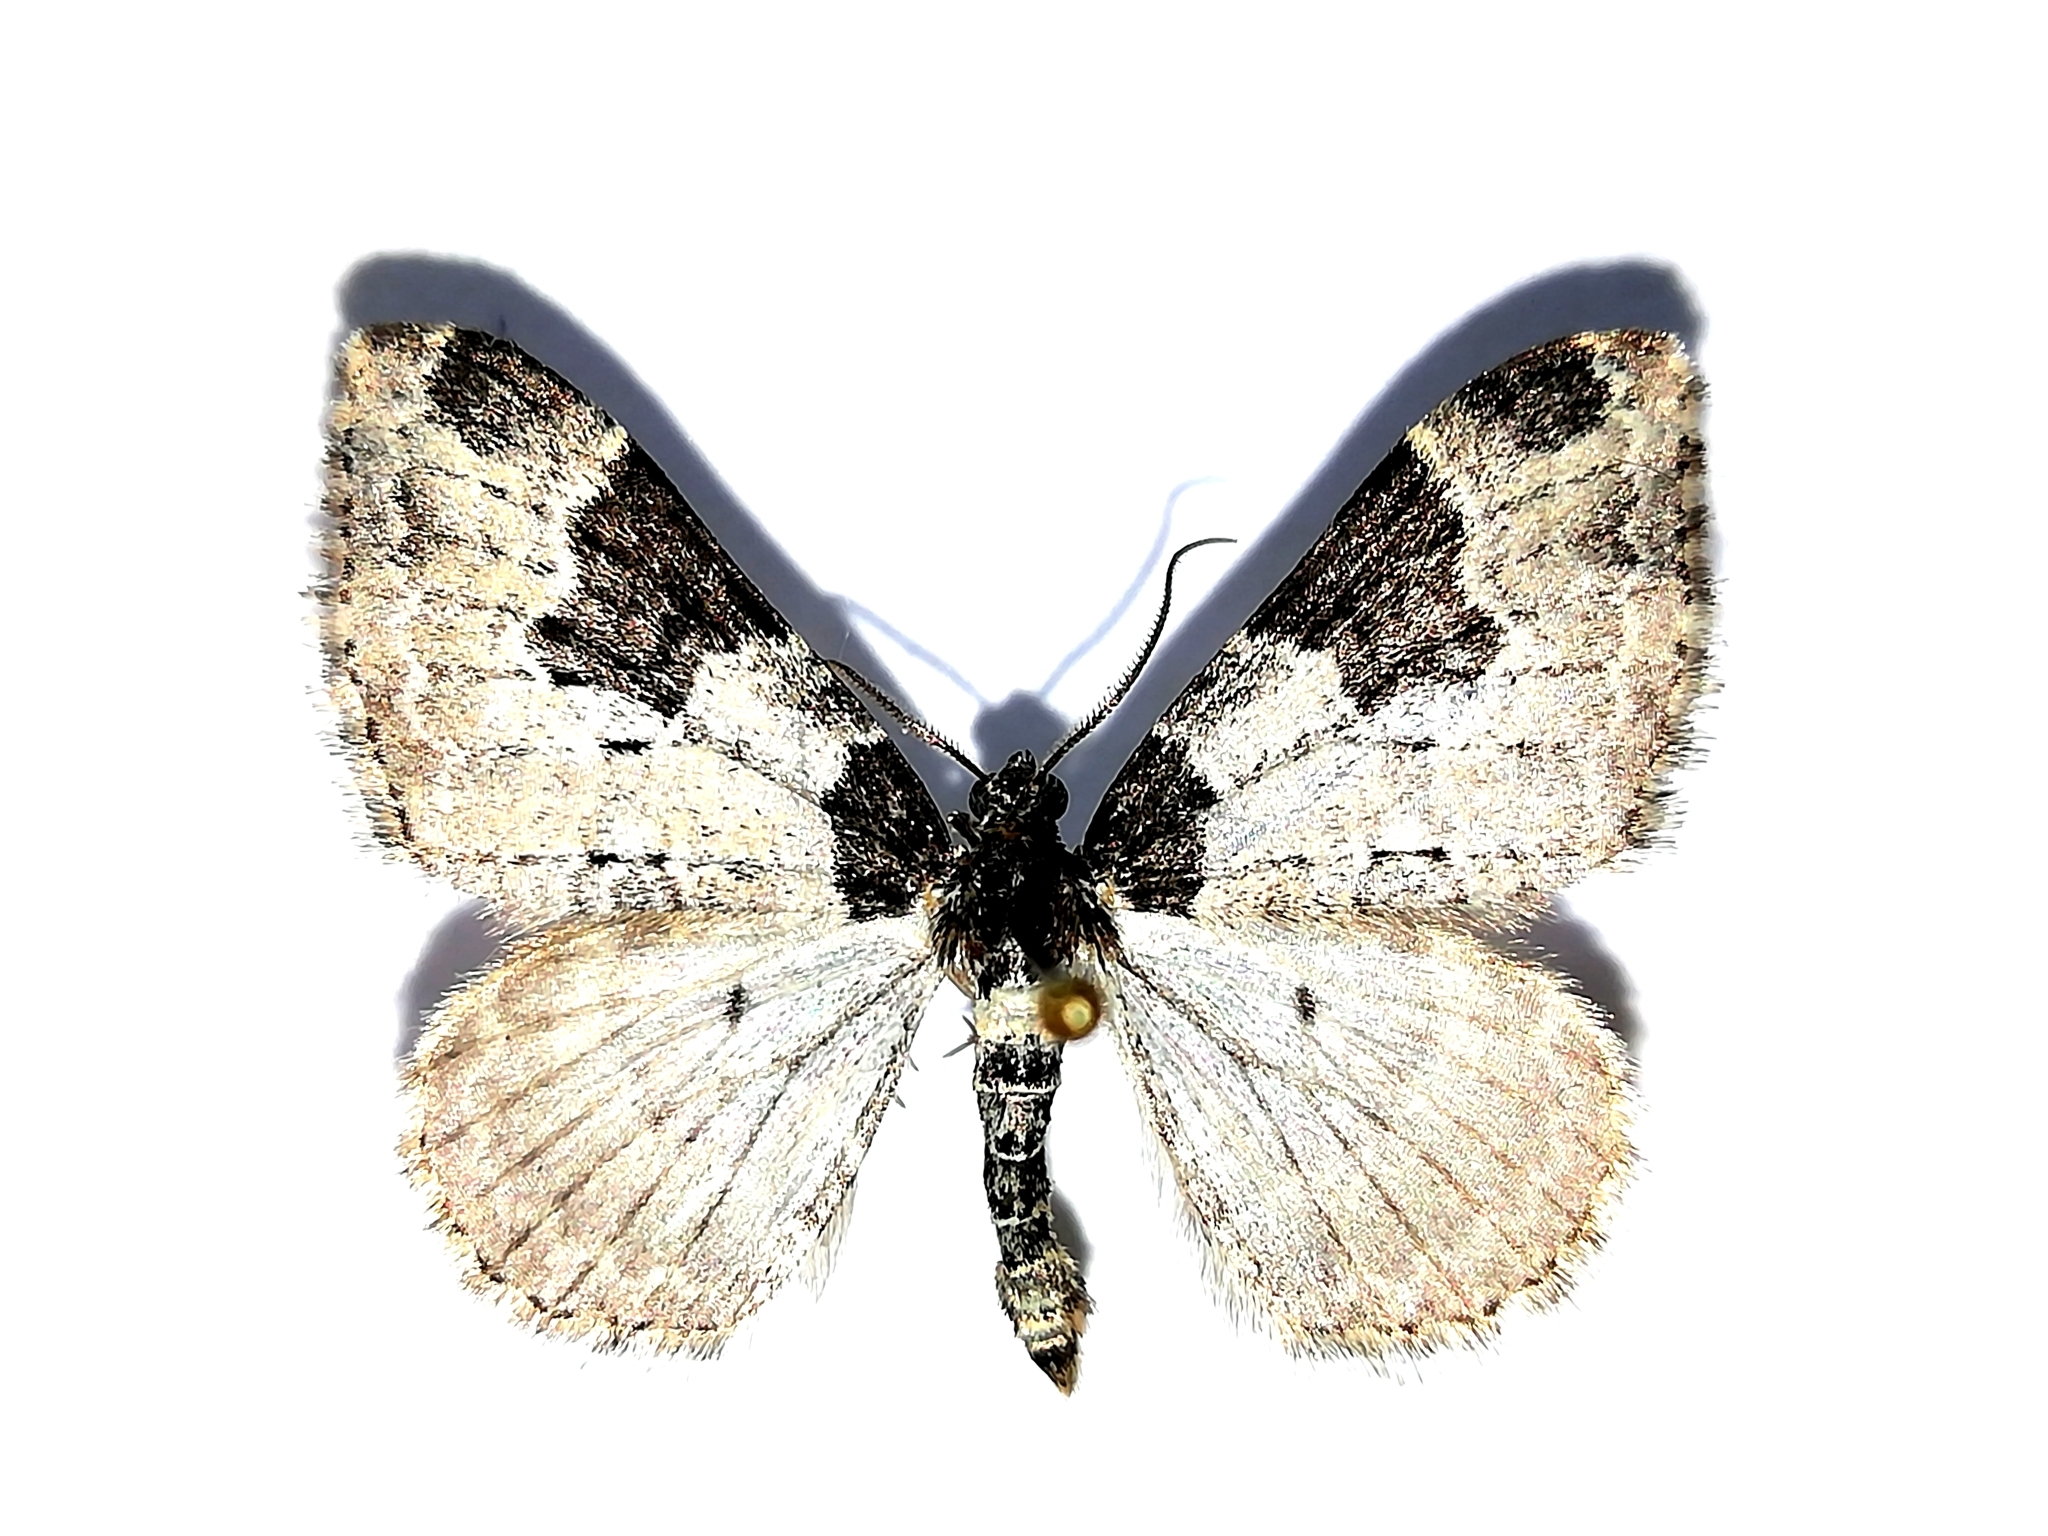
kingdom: Animalia
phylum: Arthropoda
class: Insecta
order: Lepidoptera
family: Geometridae
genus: Xanthorhoe
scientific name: Xanthorhoe fluctuata
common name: Garden carpet
